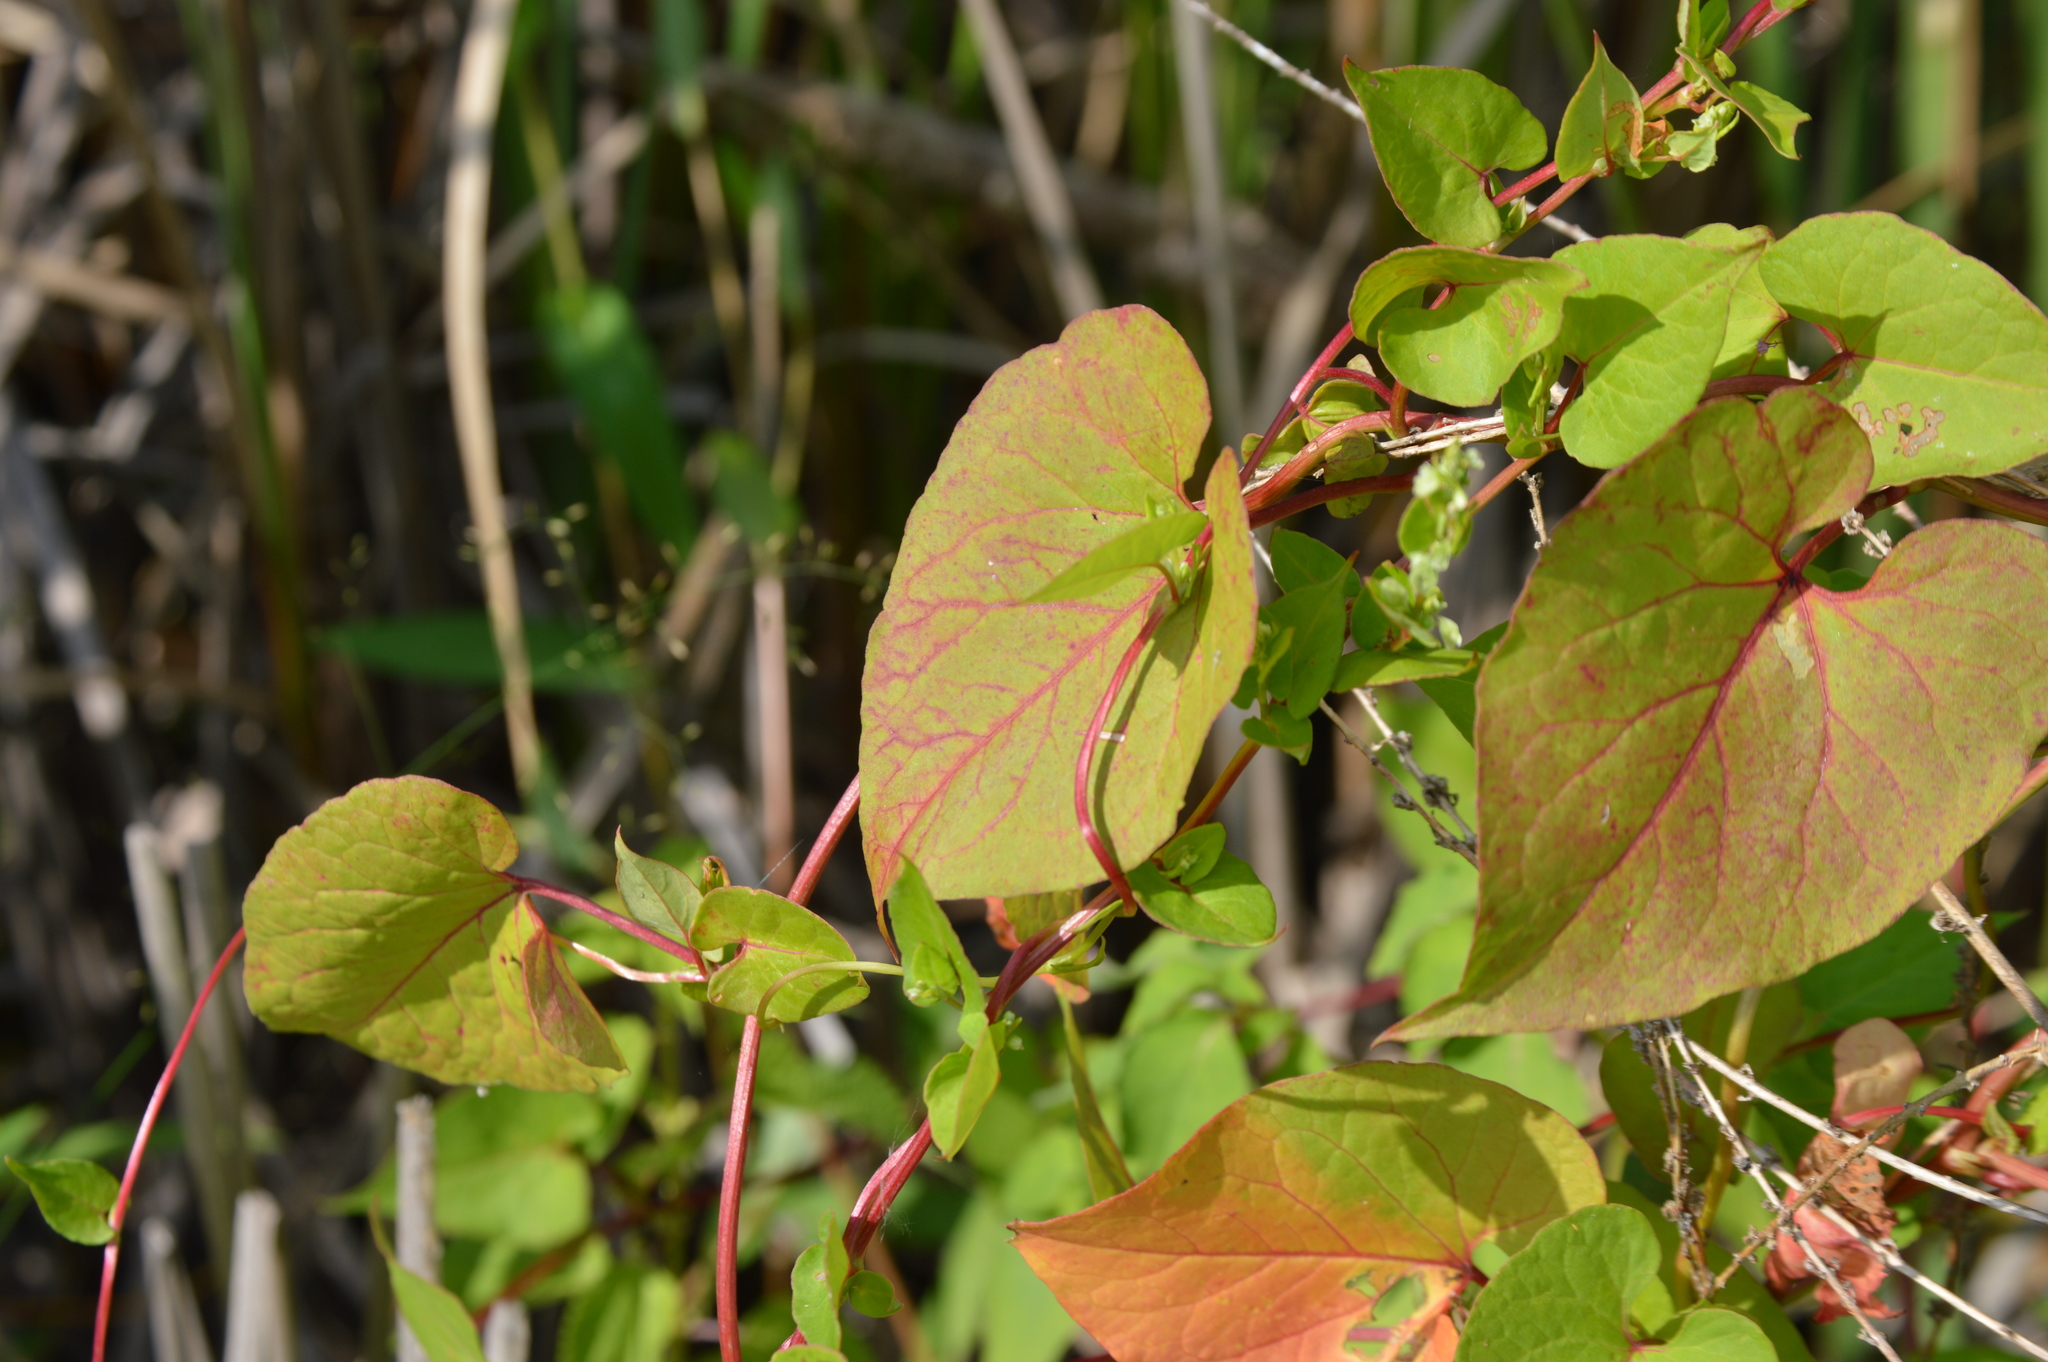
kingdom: Plantae
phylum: Tracheophyta
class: Magnoliopsida
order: Caryophyllales
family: Polygonaceae
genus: Fallopia
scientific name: Fallopia scandens
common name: Climbing false buckwheat
